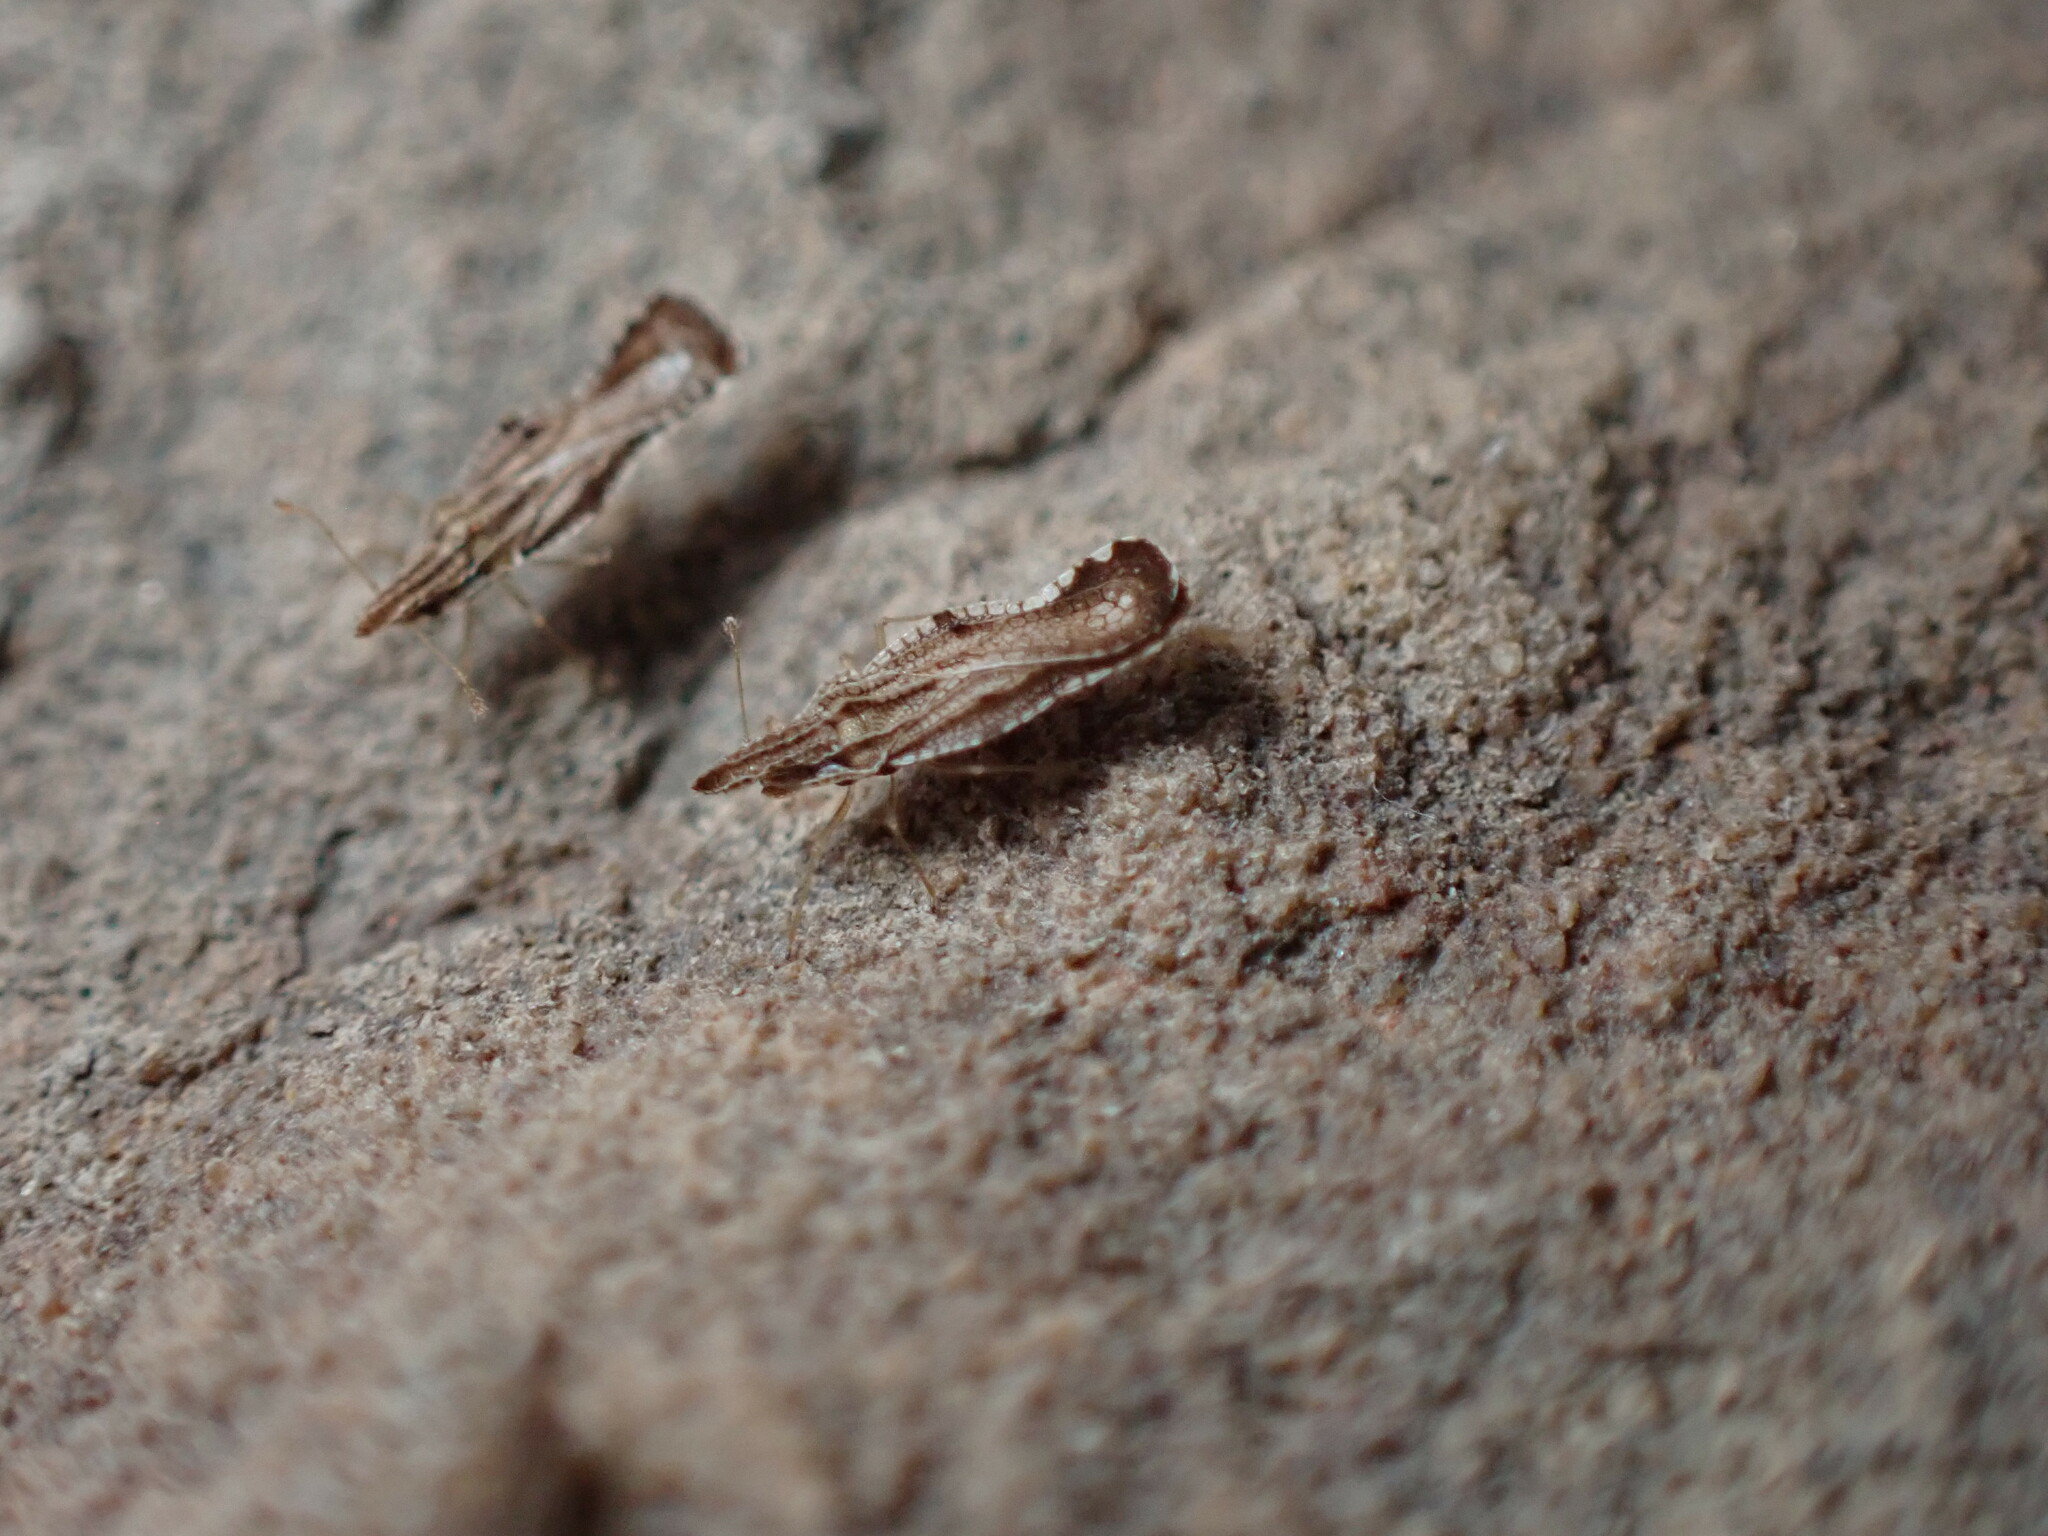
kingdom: Animalia
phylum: Arthropoda
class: Insecta
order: Hemiptera
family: Tingidae
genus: Corythaica
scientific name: Corythaica carinata
